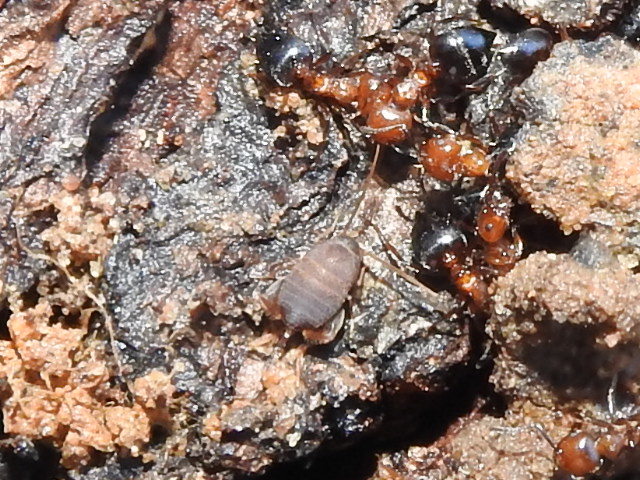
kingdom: Animalia
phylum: Arthropoda
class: Insecta
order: Orthoptera
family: Myrmecophilidae
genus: Myrmecophilus
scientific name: Myrmecophilus nebrascensis
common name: Nebraska ant cricket
